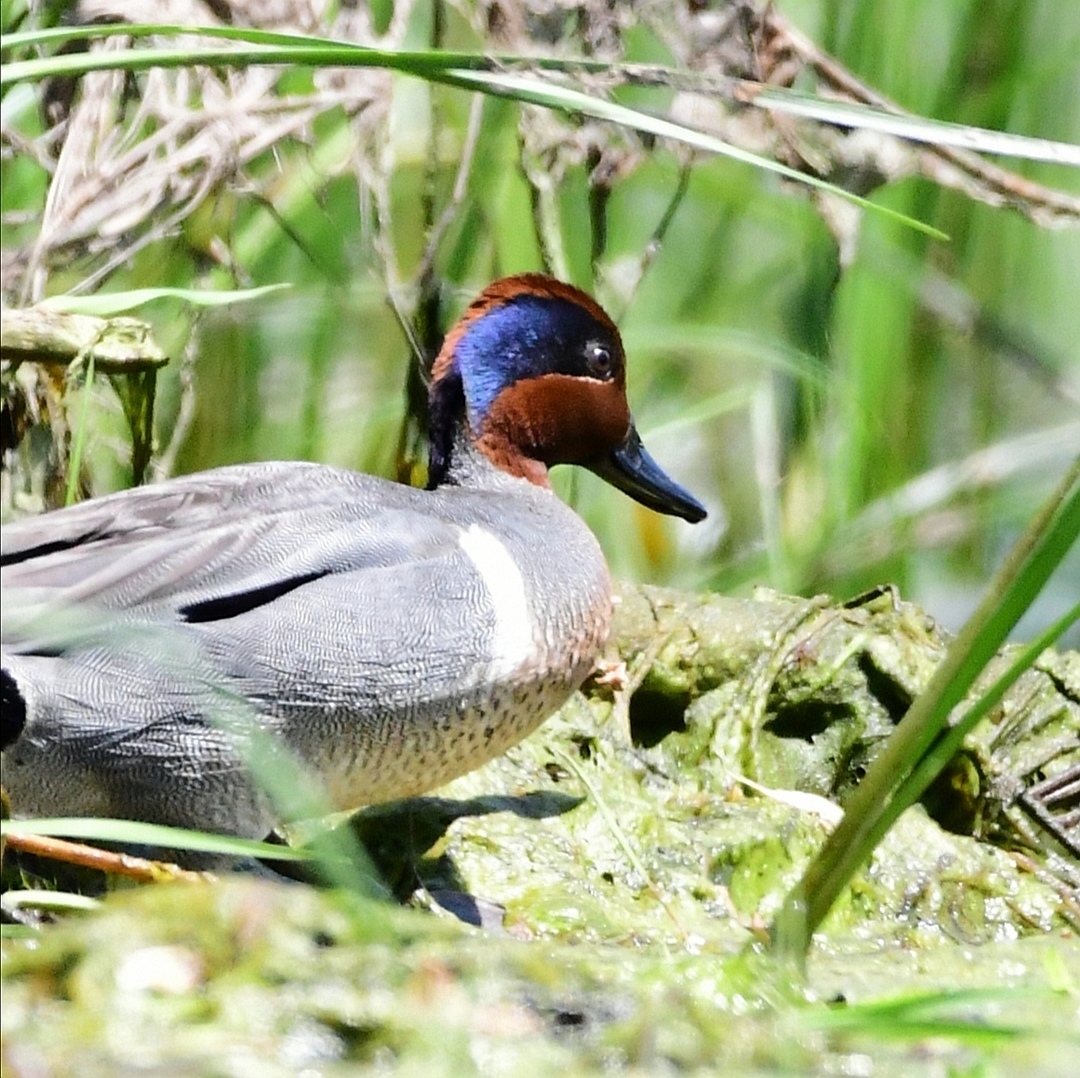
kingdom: Animalia
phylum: Chordata
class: Aves
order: Anseriformes
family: Anatidae
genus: Anas
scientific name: Anas crecca
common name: Eurasian teal
